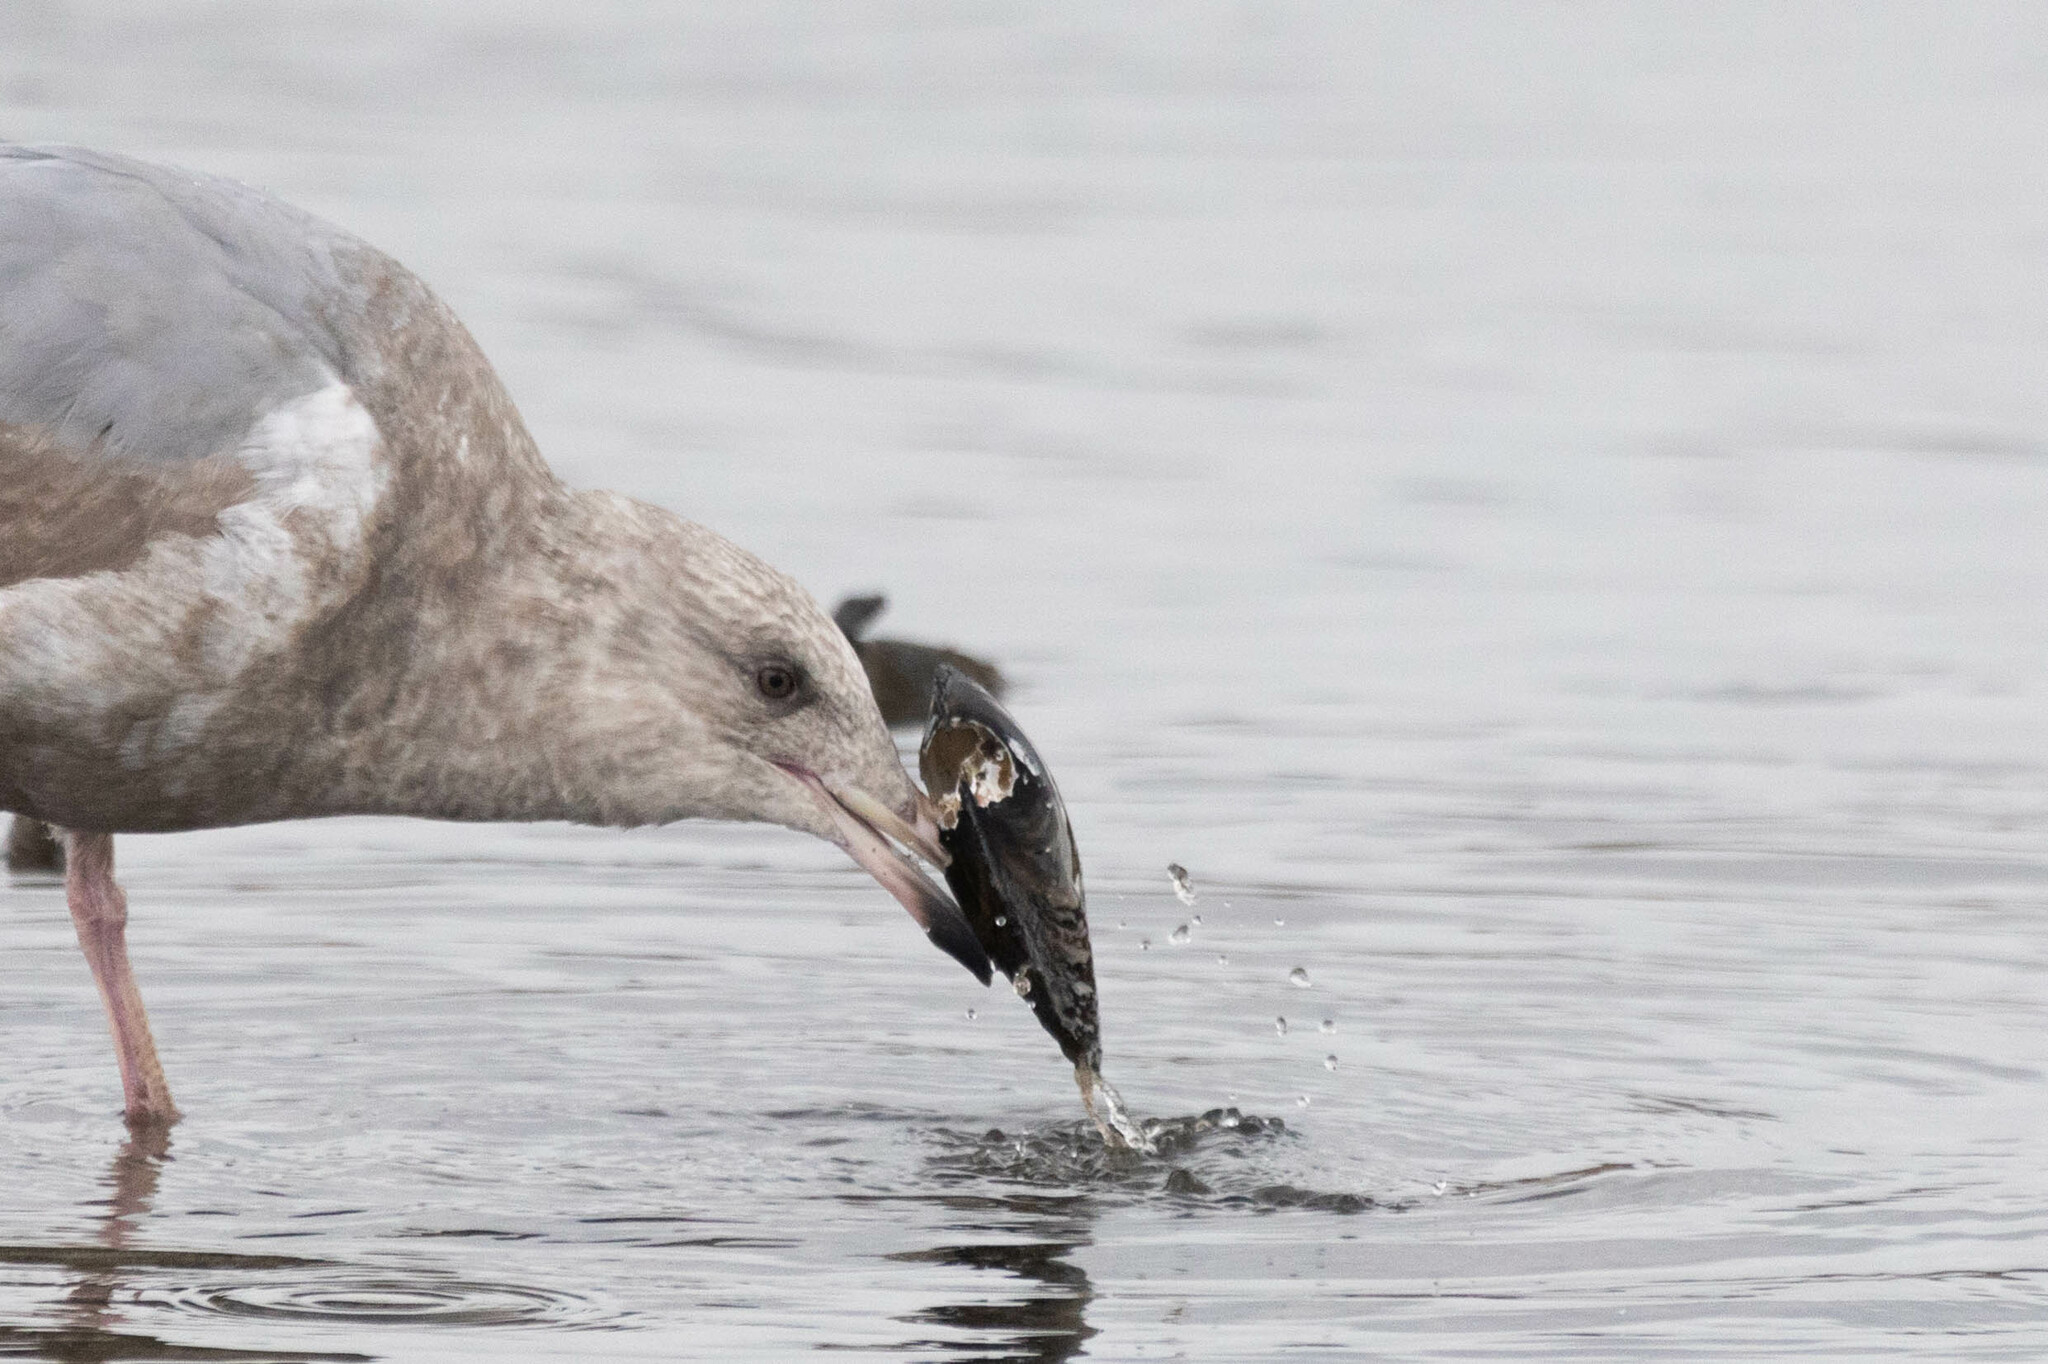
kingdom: Animalia
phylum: Mollusca
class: Bivalvia
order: Unionida
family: Unionidae
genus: Anodonta
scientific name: Anodonta kennerlyi
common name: Western floater
